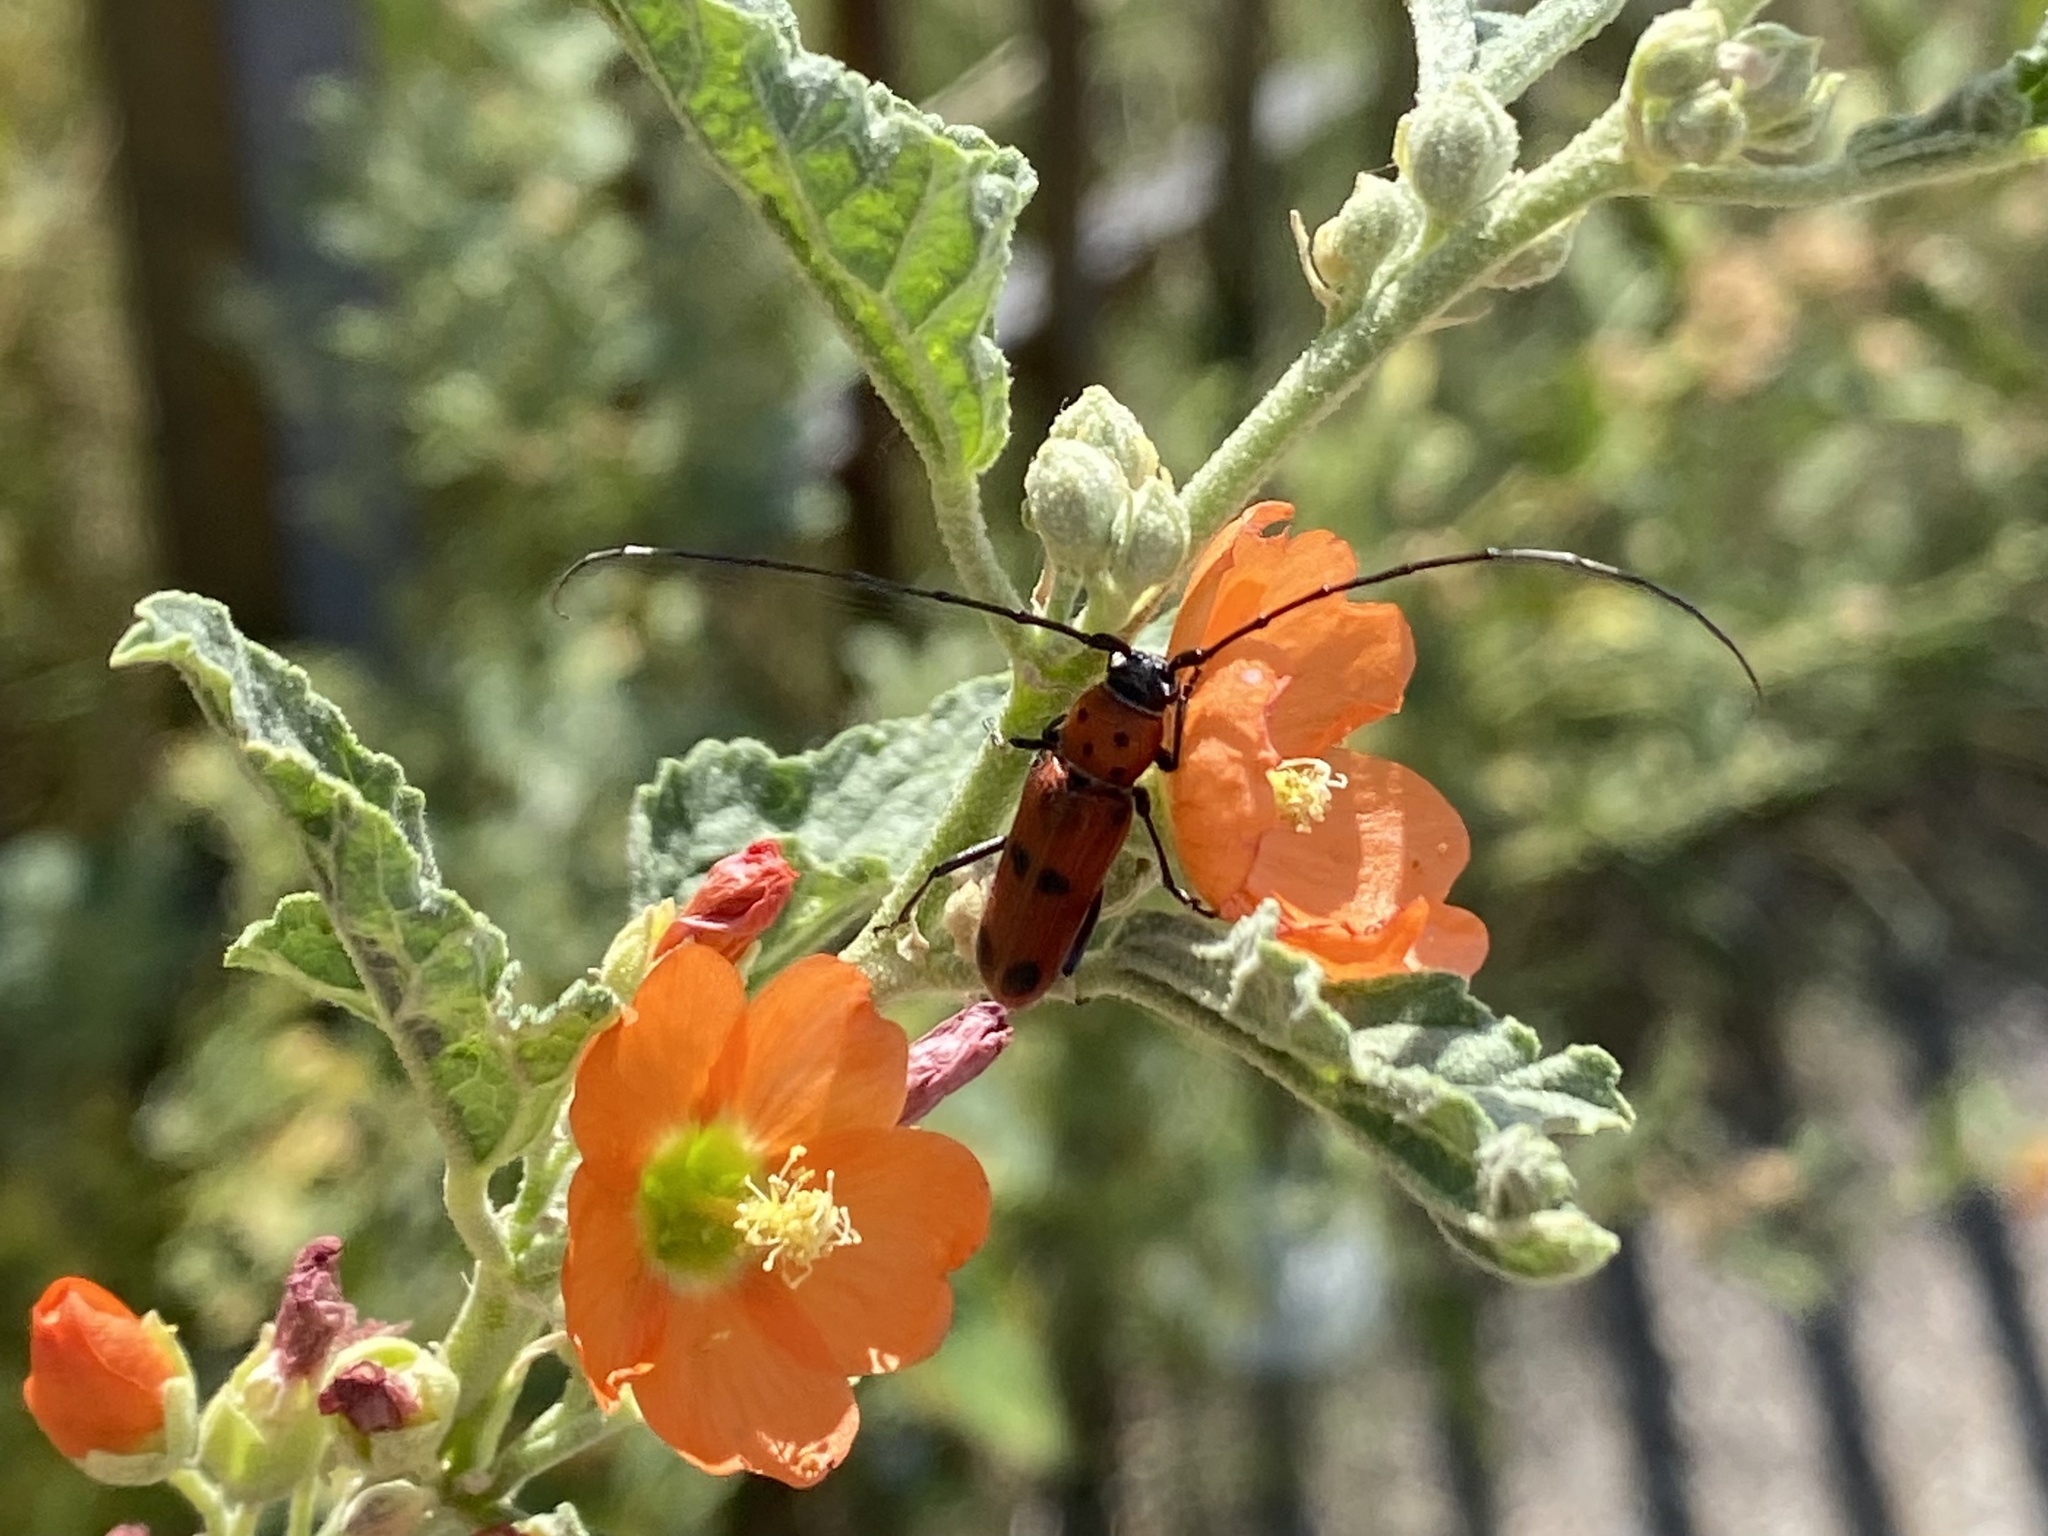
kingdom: Animalia
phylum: Arthropoda
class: Insecta
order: Coleoptera
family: Cerambycidae
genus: Tylosis
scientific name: Tylosis maculatus
